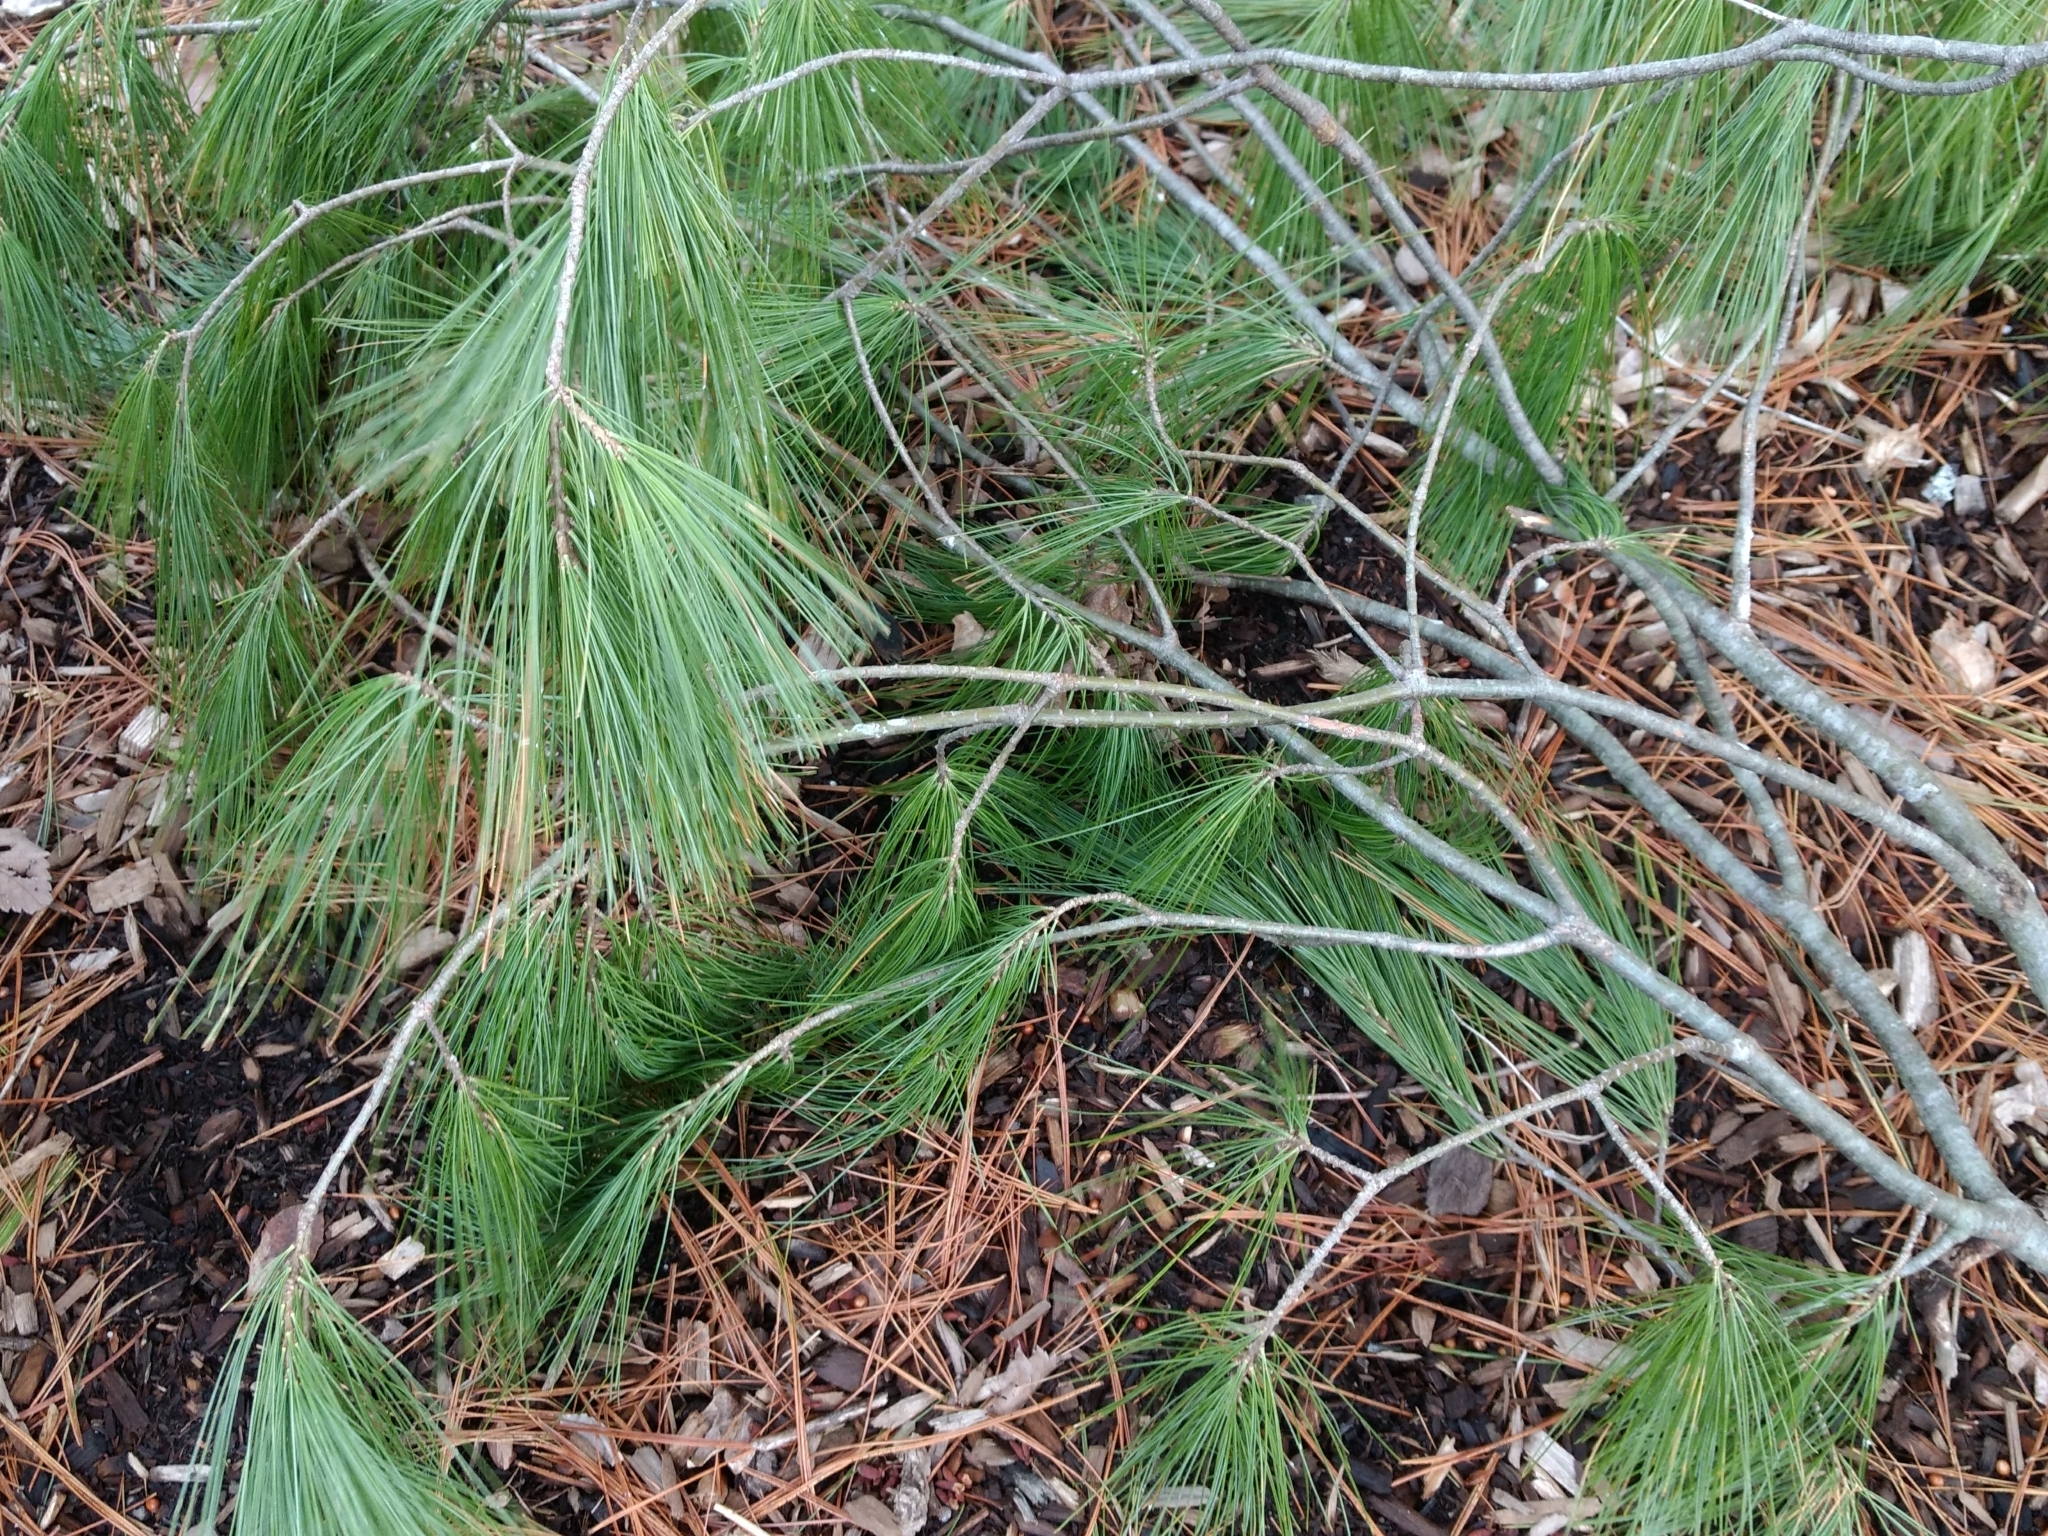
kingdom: Plantae
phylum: Tracheophyta
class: Pinopsida
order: Pinales
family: Pinaceae
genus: Pinus
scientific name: Pinus strobus
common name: Weymouth pine
